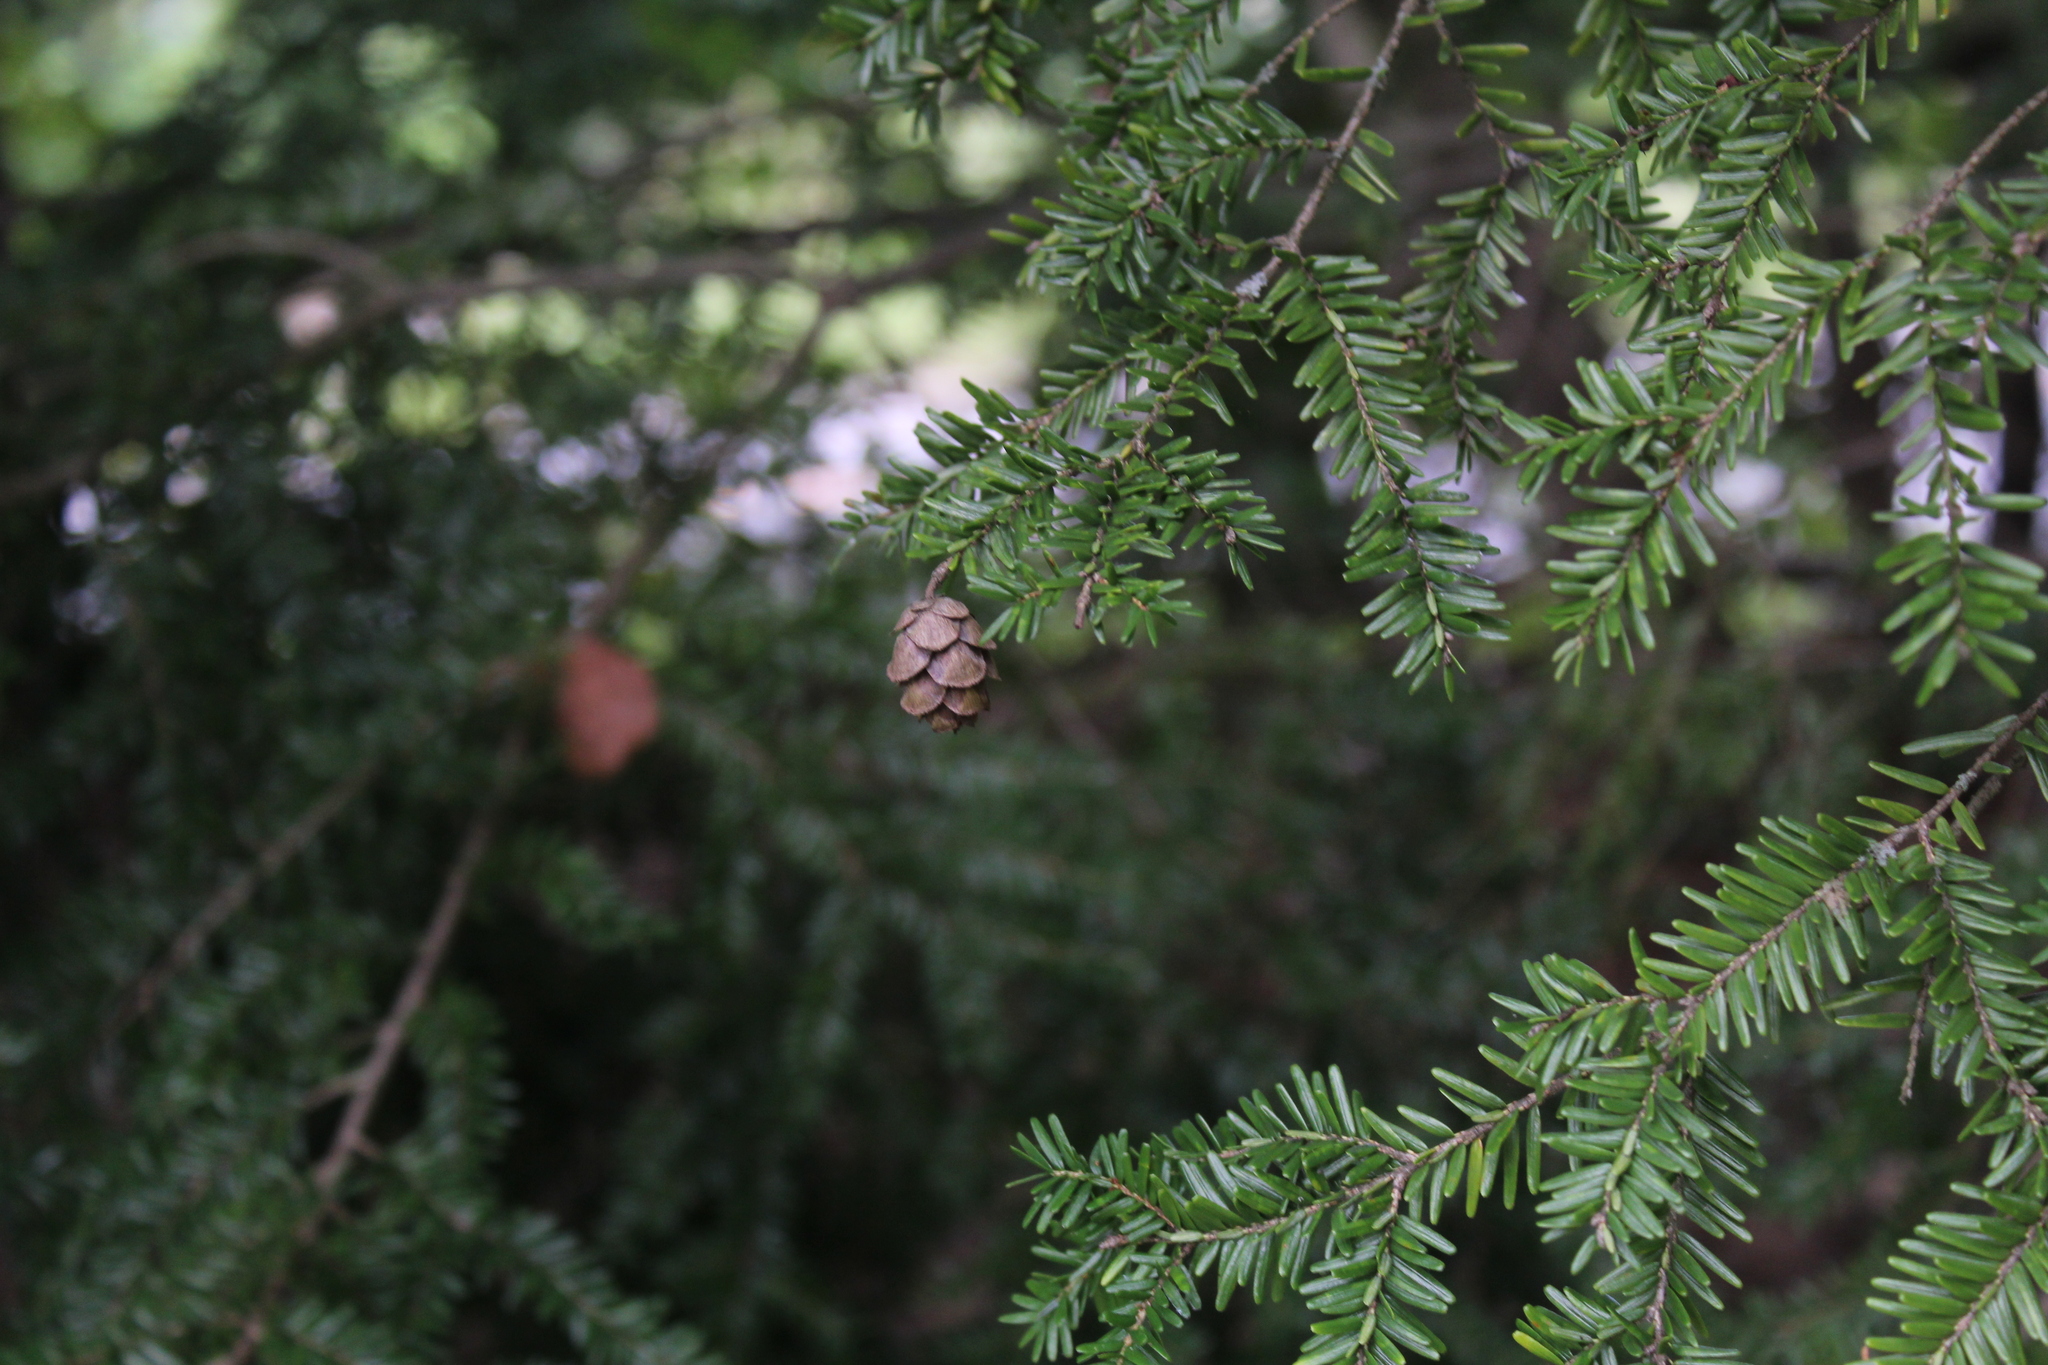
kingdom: Plantae
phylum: Tracheophyta
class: Pinopsida
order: Pinales
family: Pinaceae
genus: Tsuga
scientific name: Tsuga canadensis
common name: Eastern hemlock
